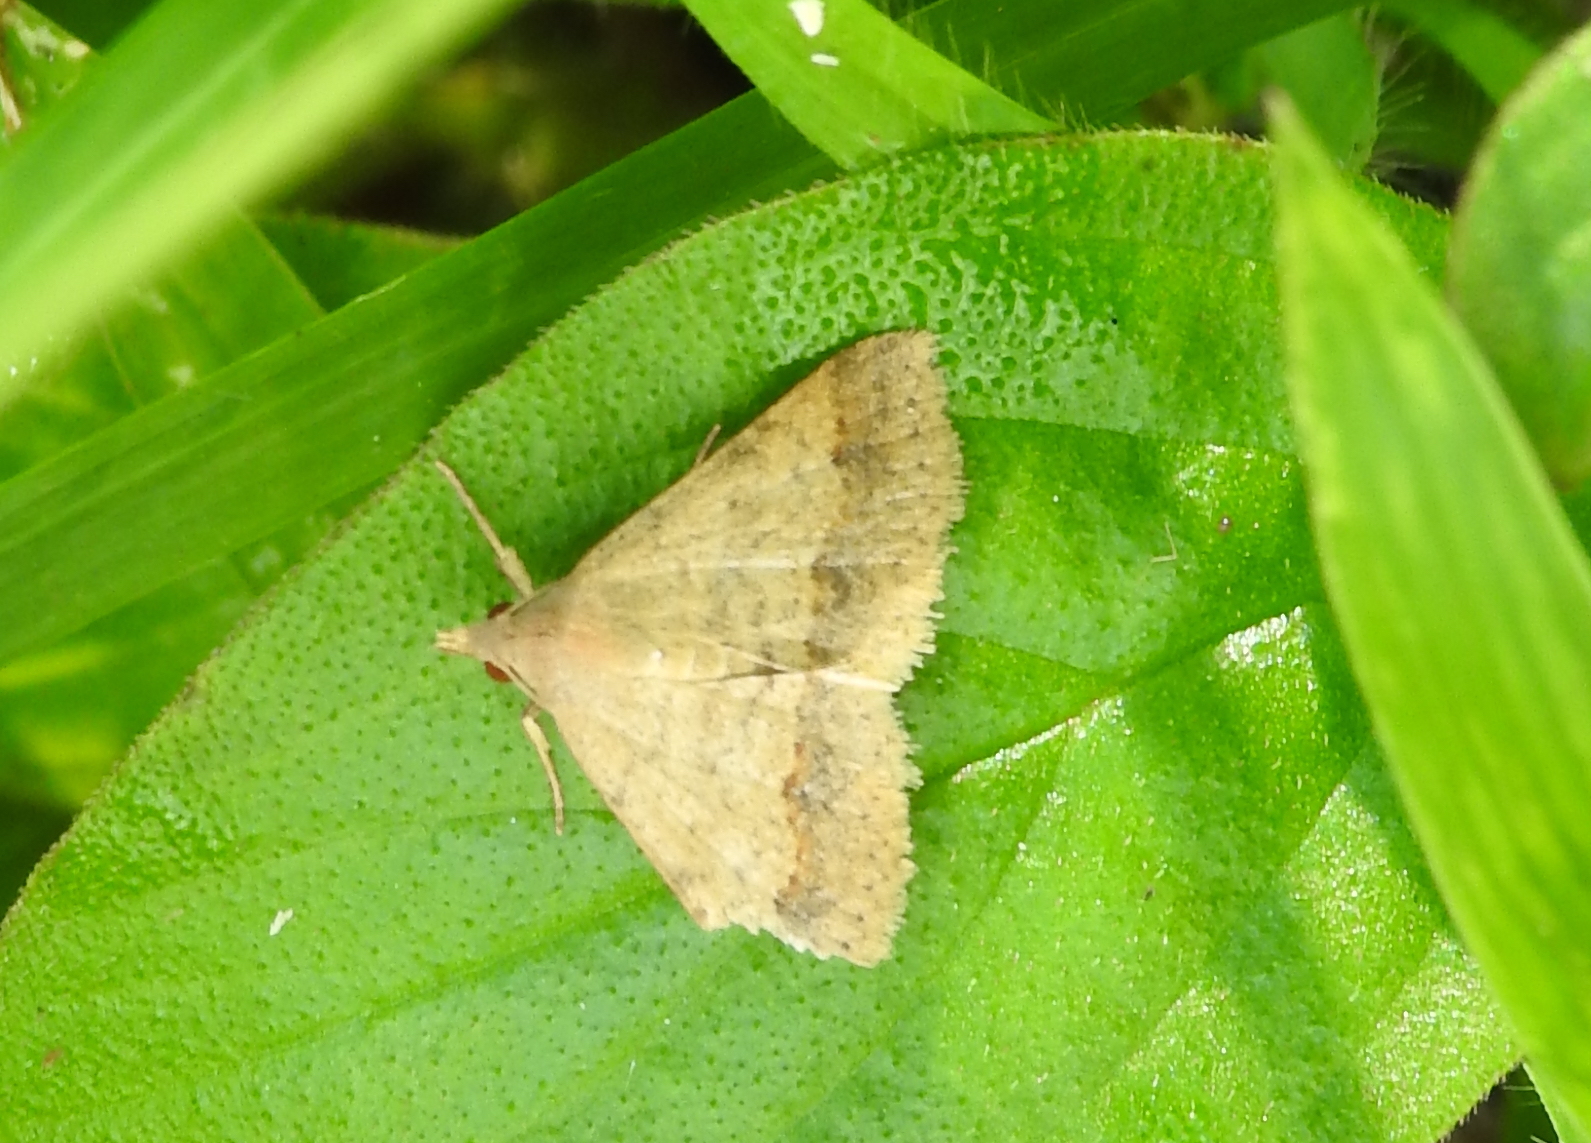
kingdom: Animalia
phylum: Arthropoda
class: Insecta
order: Lepidoptera
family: Erebidae
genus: Gesonia
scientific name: Gesonia obeditalis
